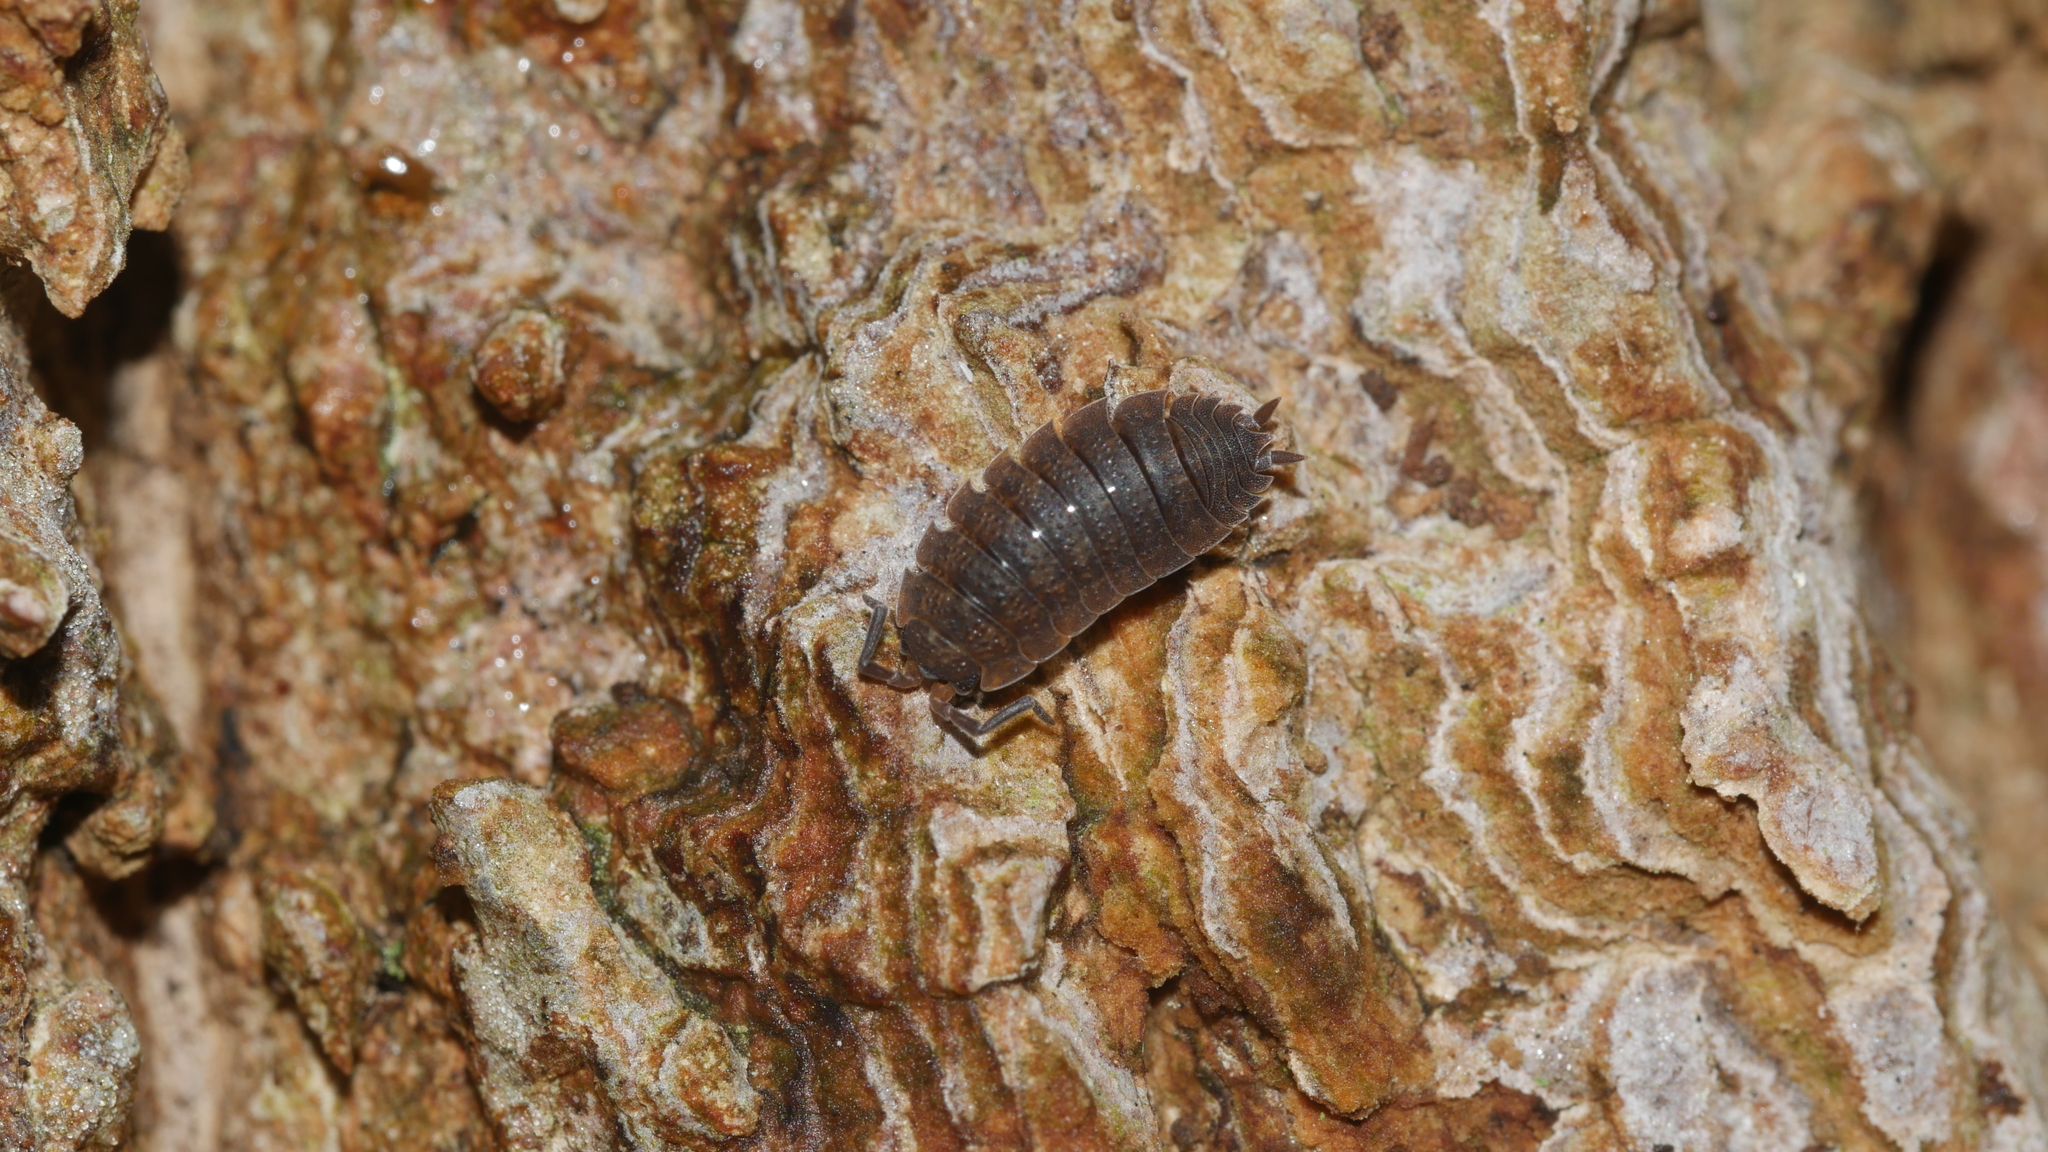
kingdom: Animalia
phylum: Arthropoda
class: Malacostraca
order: Isopoda
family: Porcellionidae
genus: Porcellio
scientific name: Porcellio scaber
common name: Common rough woodlouse
